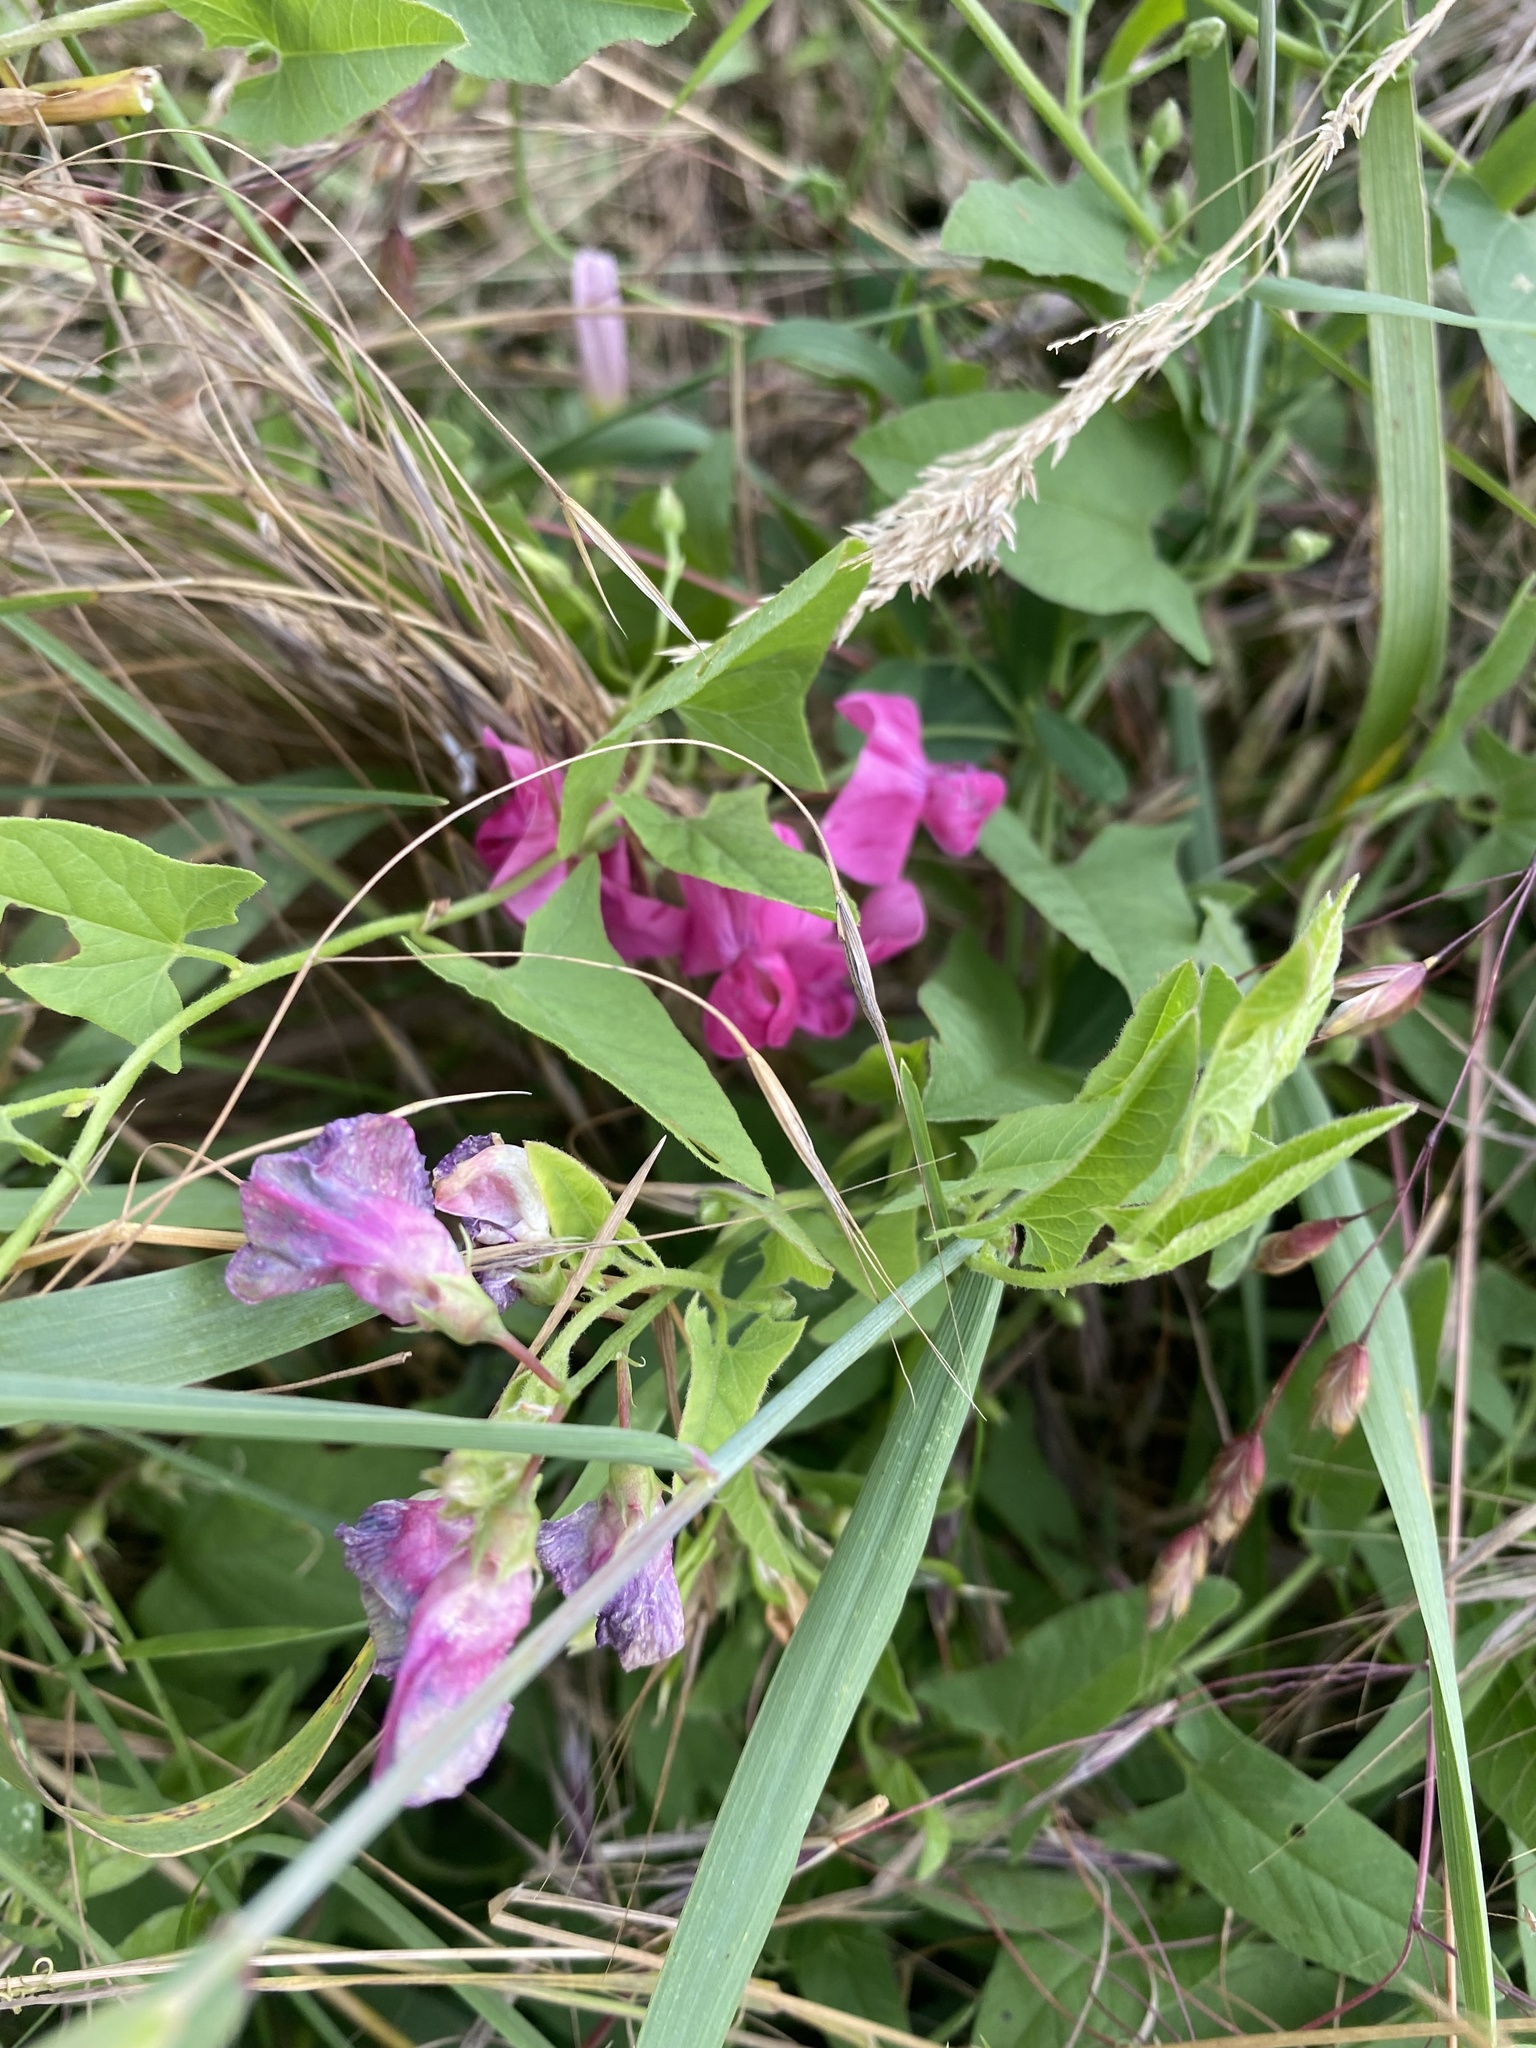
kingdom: Plantae
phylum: Tracheophyta
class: Magnoliopsida
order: Fabales
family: Fabaceae
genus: Lathyrus
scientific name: Lathyrus tuberosus
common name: Tuberous pea
